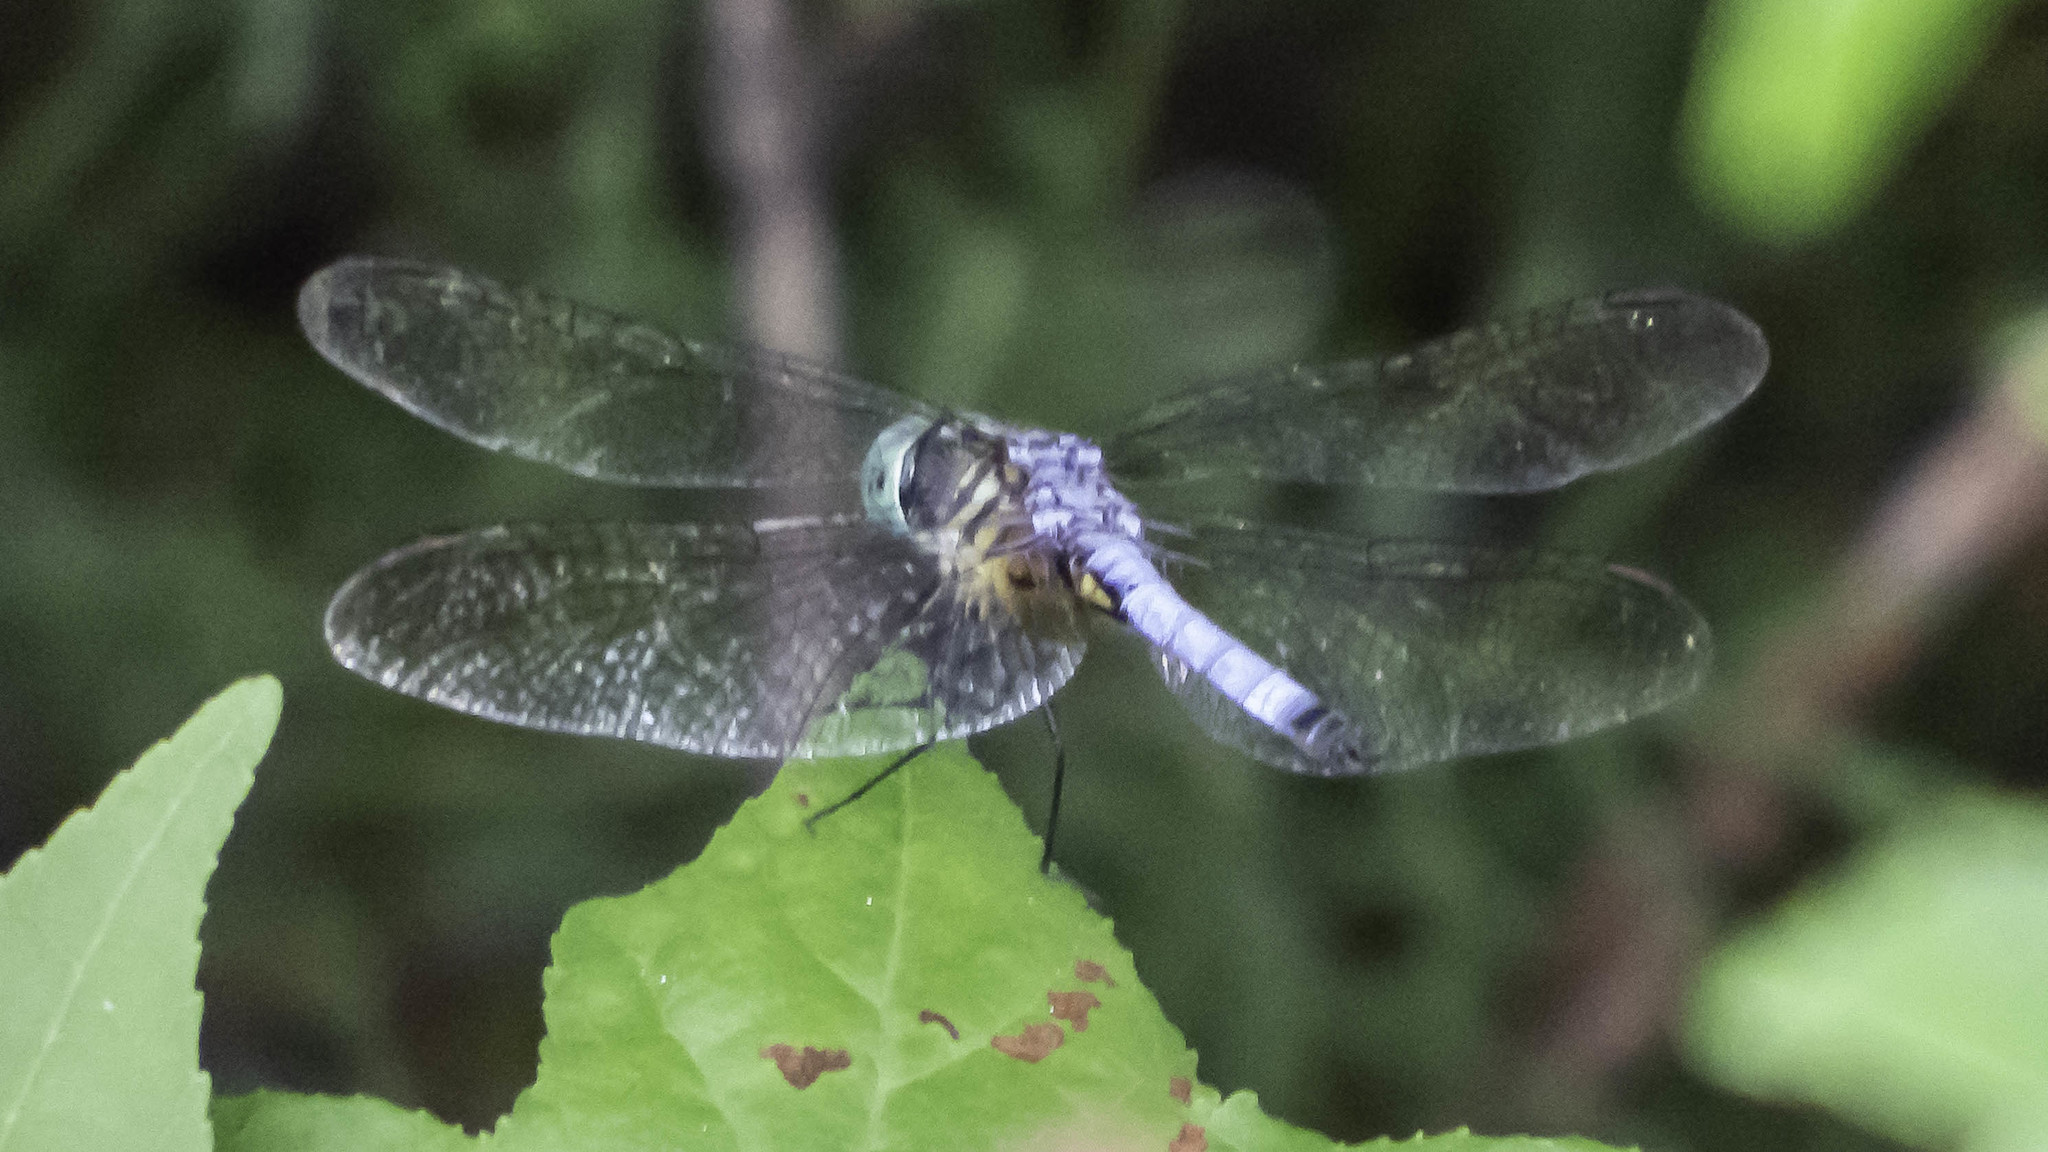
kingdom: Animalia
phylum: Arthropoda
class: Insecta
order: Odonata
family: Libellulidae
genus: Pachydiplax
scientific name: Pachydiplax longipennis
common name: Blue dasher
